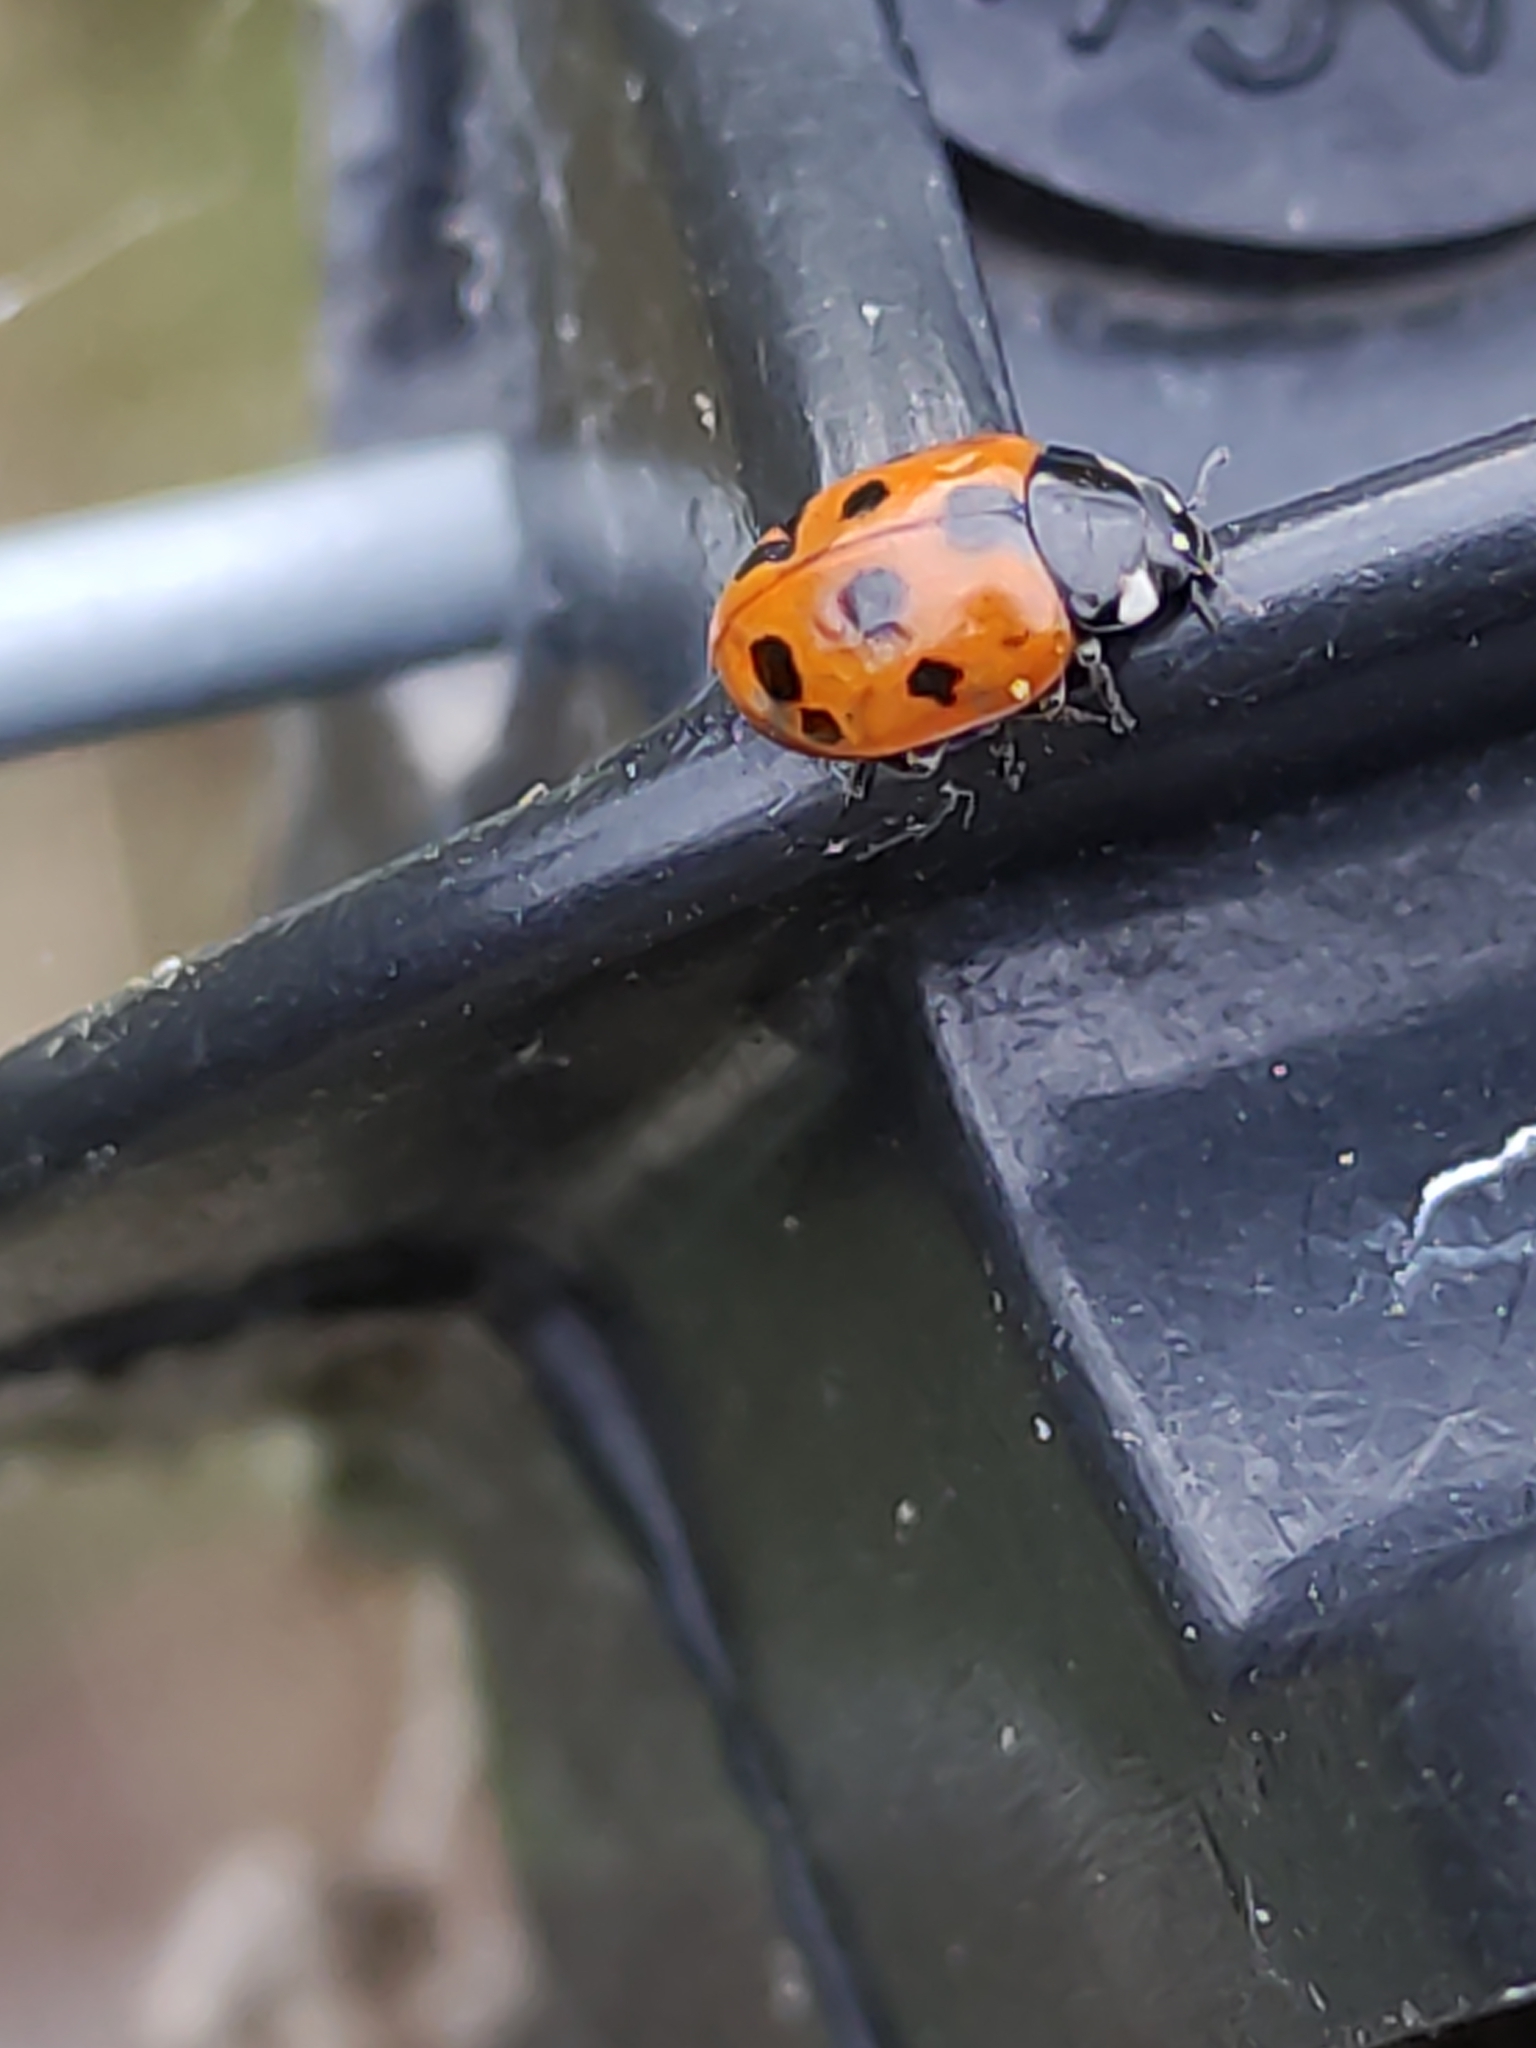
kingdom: Animalia
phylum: Arthropoda
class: Insecta
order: Coleoptera
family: Coccinellidae
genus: Coccinella
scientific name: Coccinella undecimpunctata
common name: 11-spot ladybird
